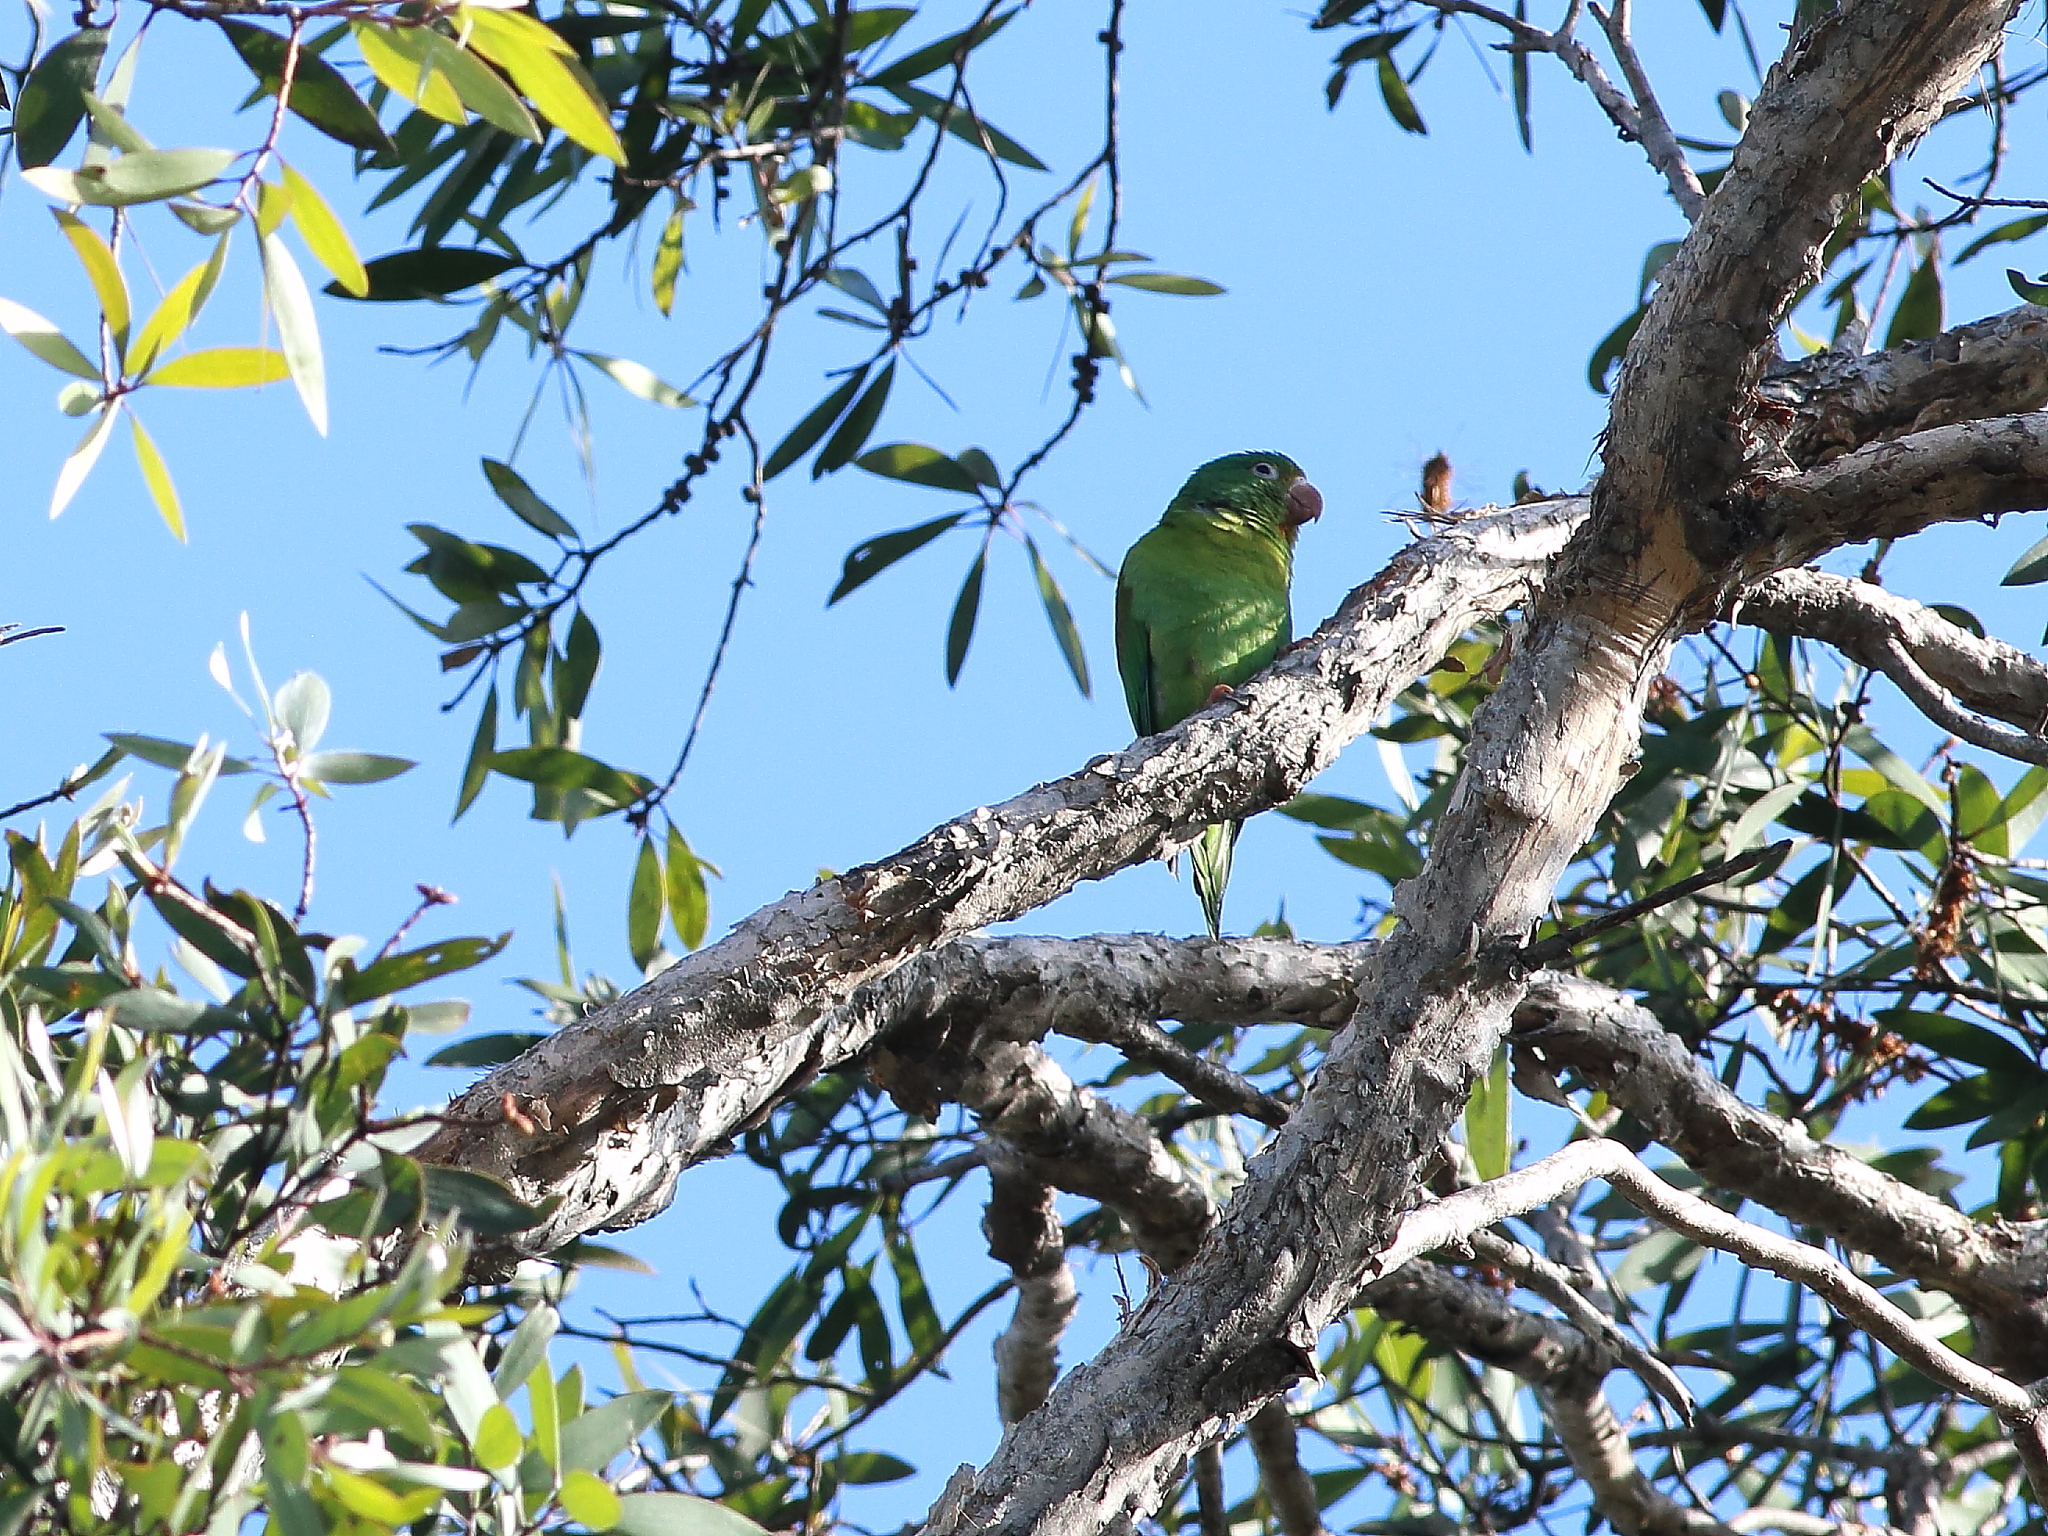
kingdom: Animalia
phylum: Chordata
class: Aves
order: Psittaciformes
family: Psittacidae
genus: Brotogeris
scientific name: Brotogeris jugularis
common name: Orange-chinned parakeet
